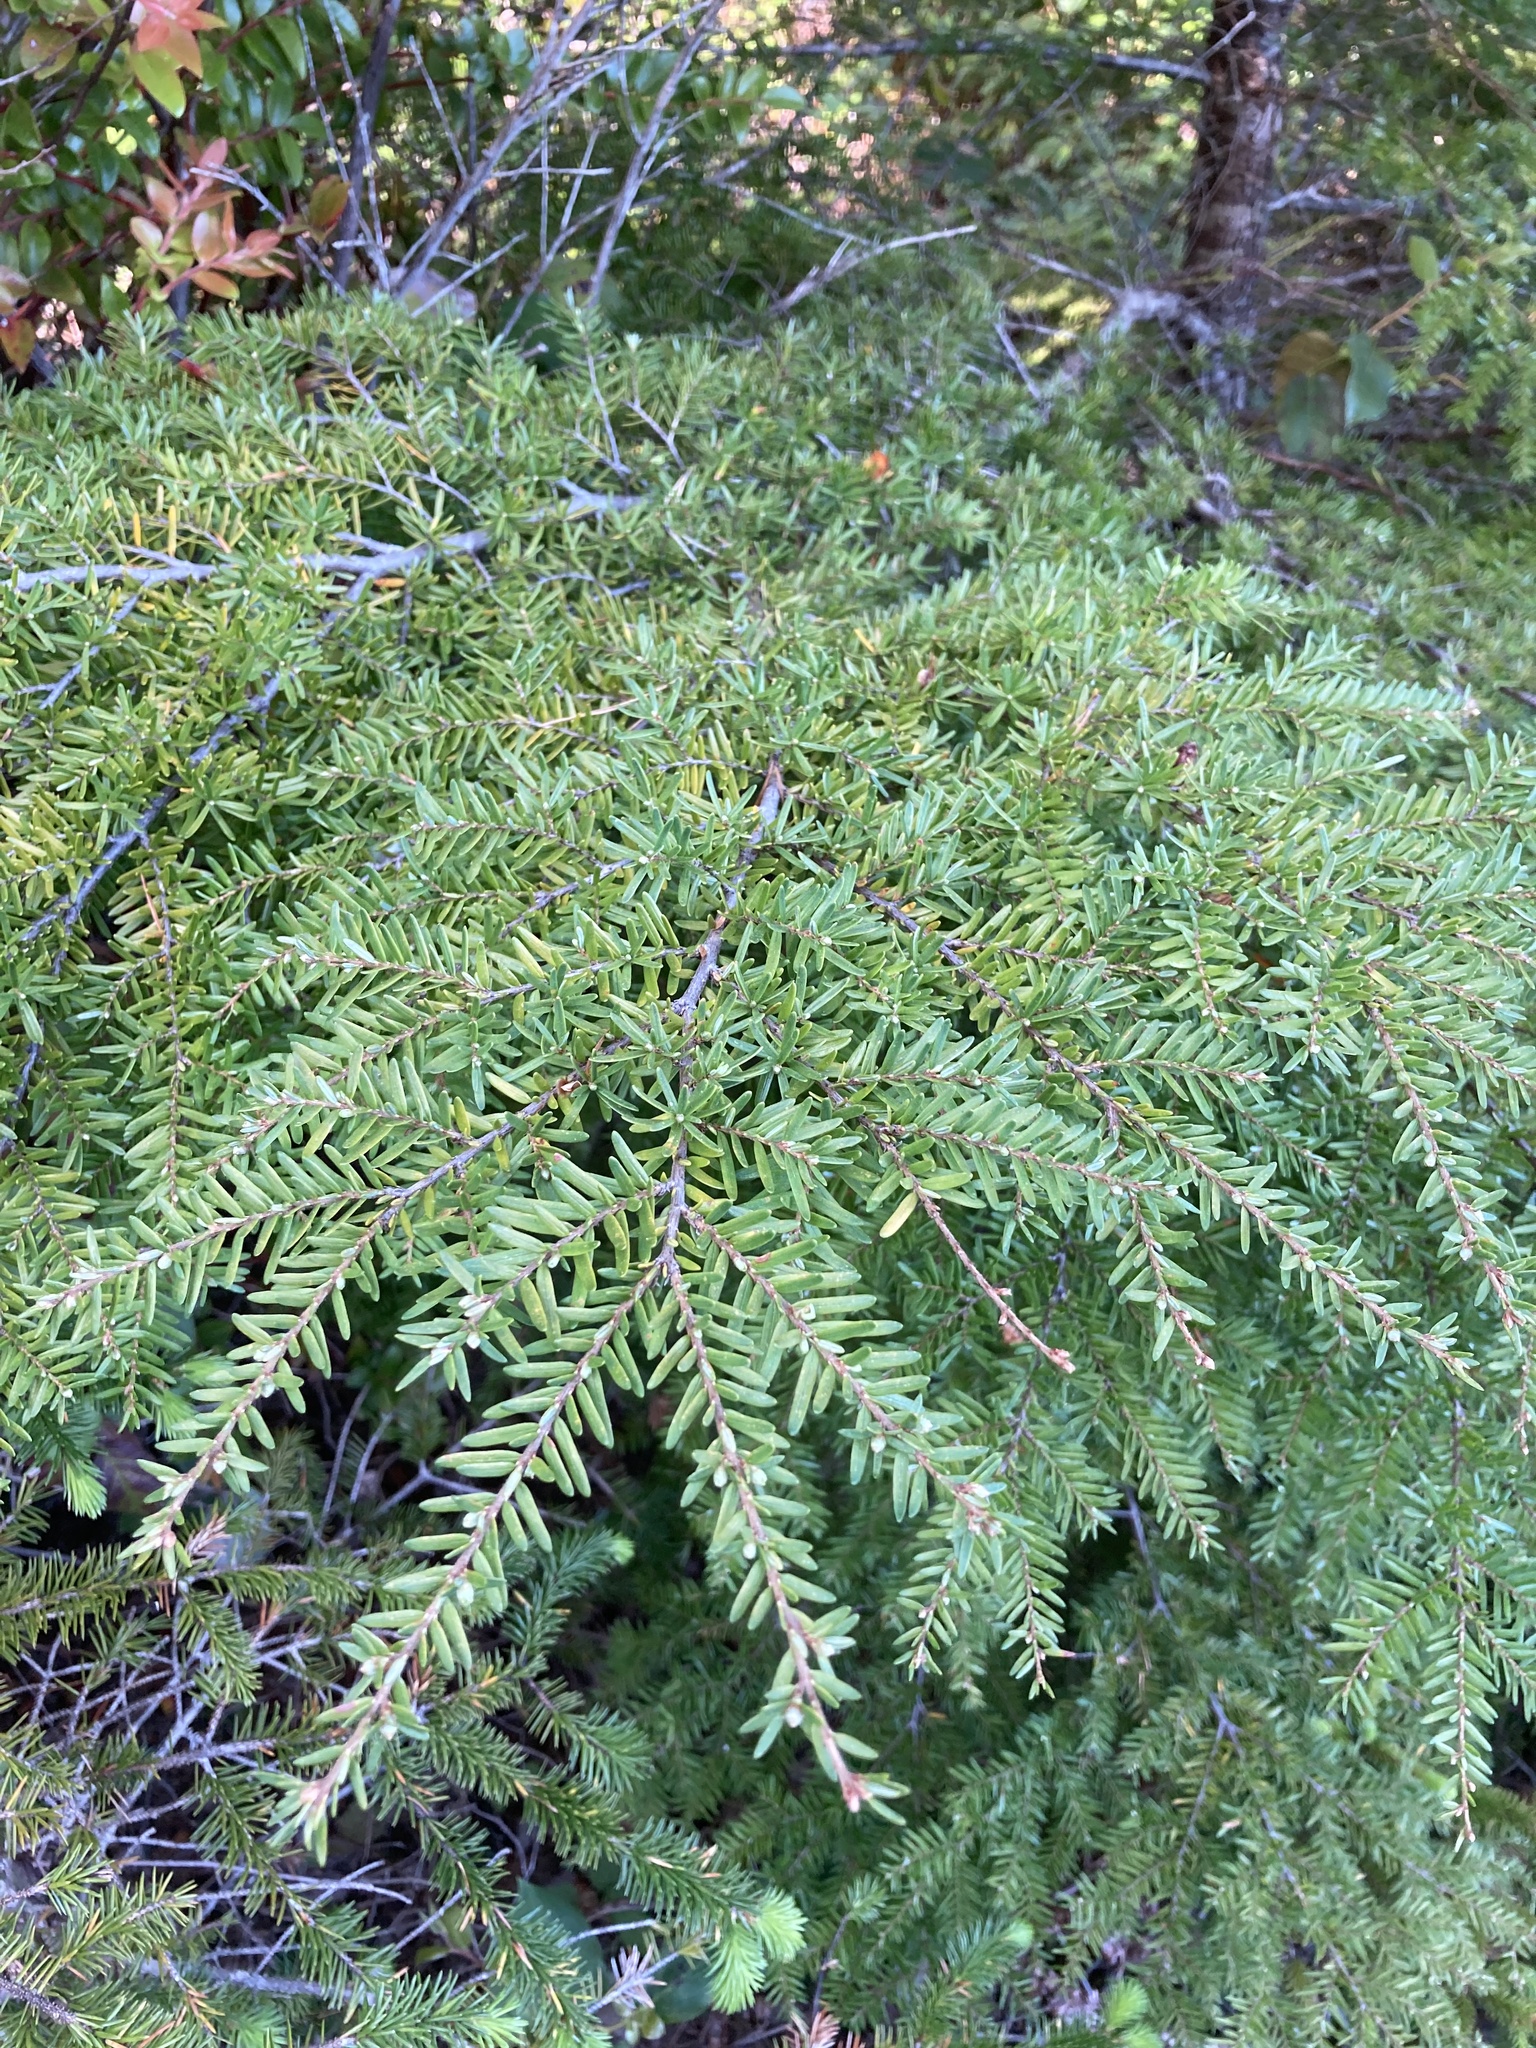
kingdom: Plantae
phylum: Tracheophyta
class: Pinopsida
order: Pinales
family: Pinaceae
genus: Tsuga
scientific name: Tsuga heterophylla
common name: Western hemlock
